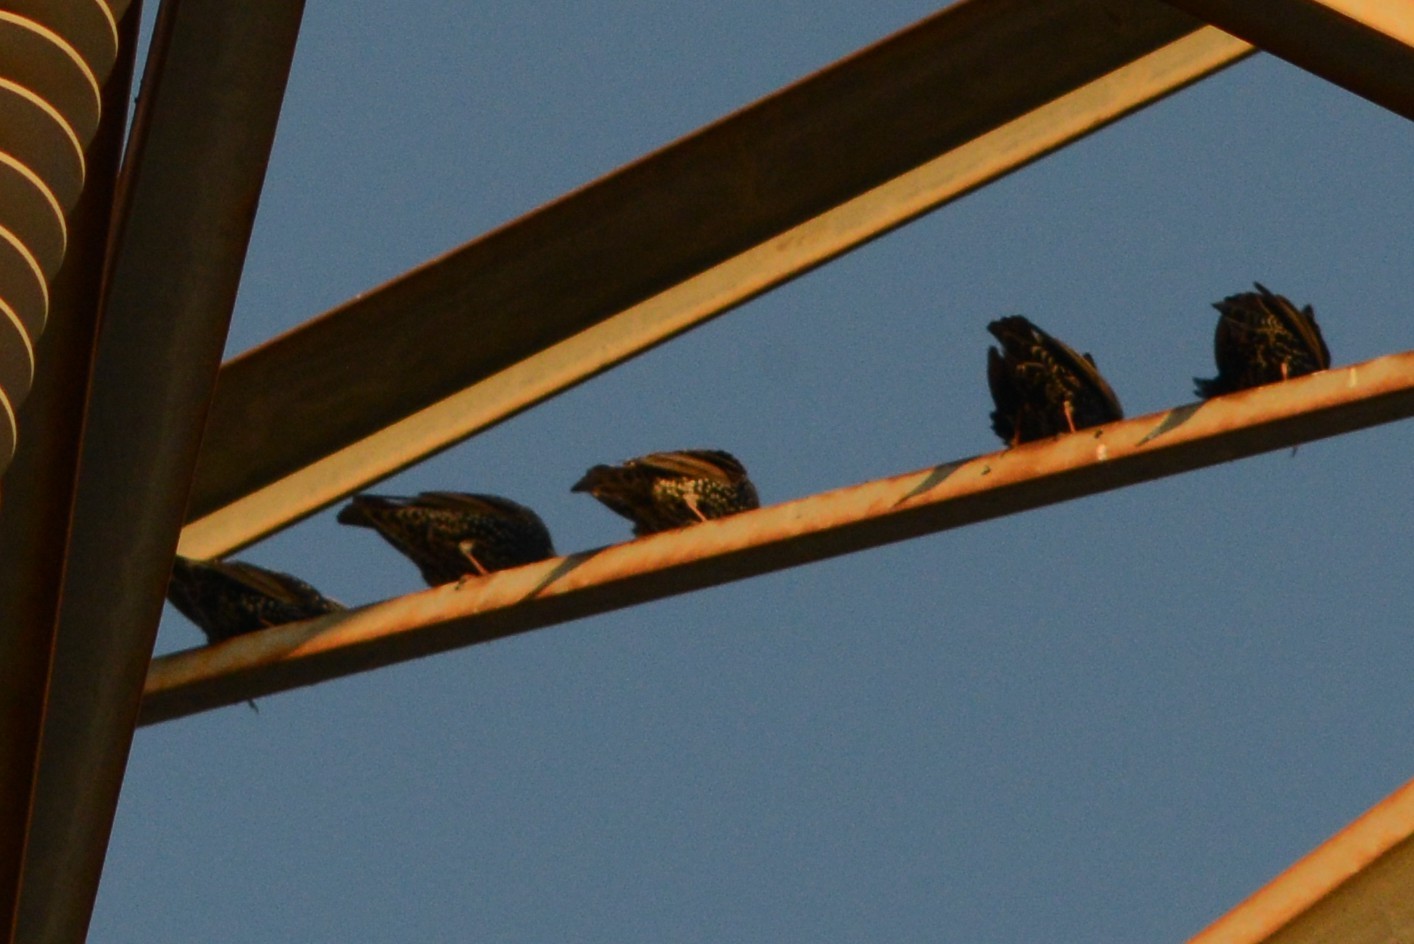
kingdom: Animalia
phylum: Chordata
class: Aves
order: Passeriformes
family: Sturnidae
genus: Sturnus
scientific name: Sturnus vulgaris
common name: Common starling
